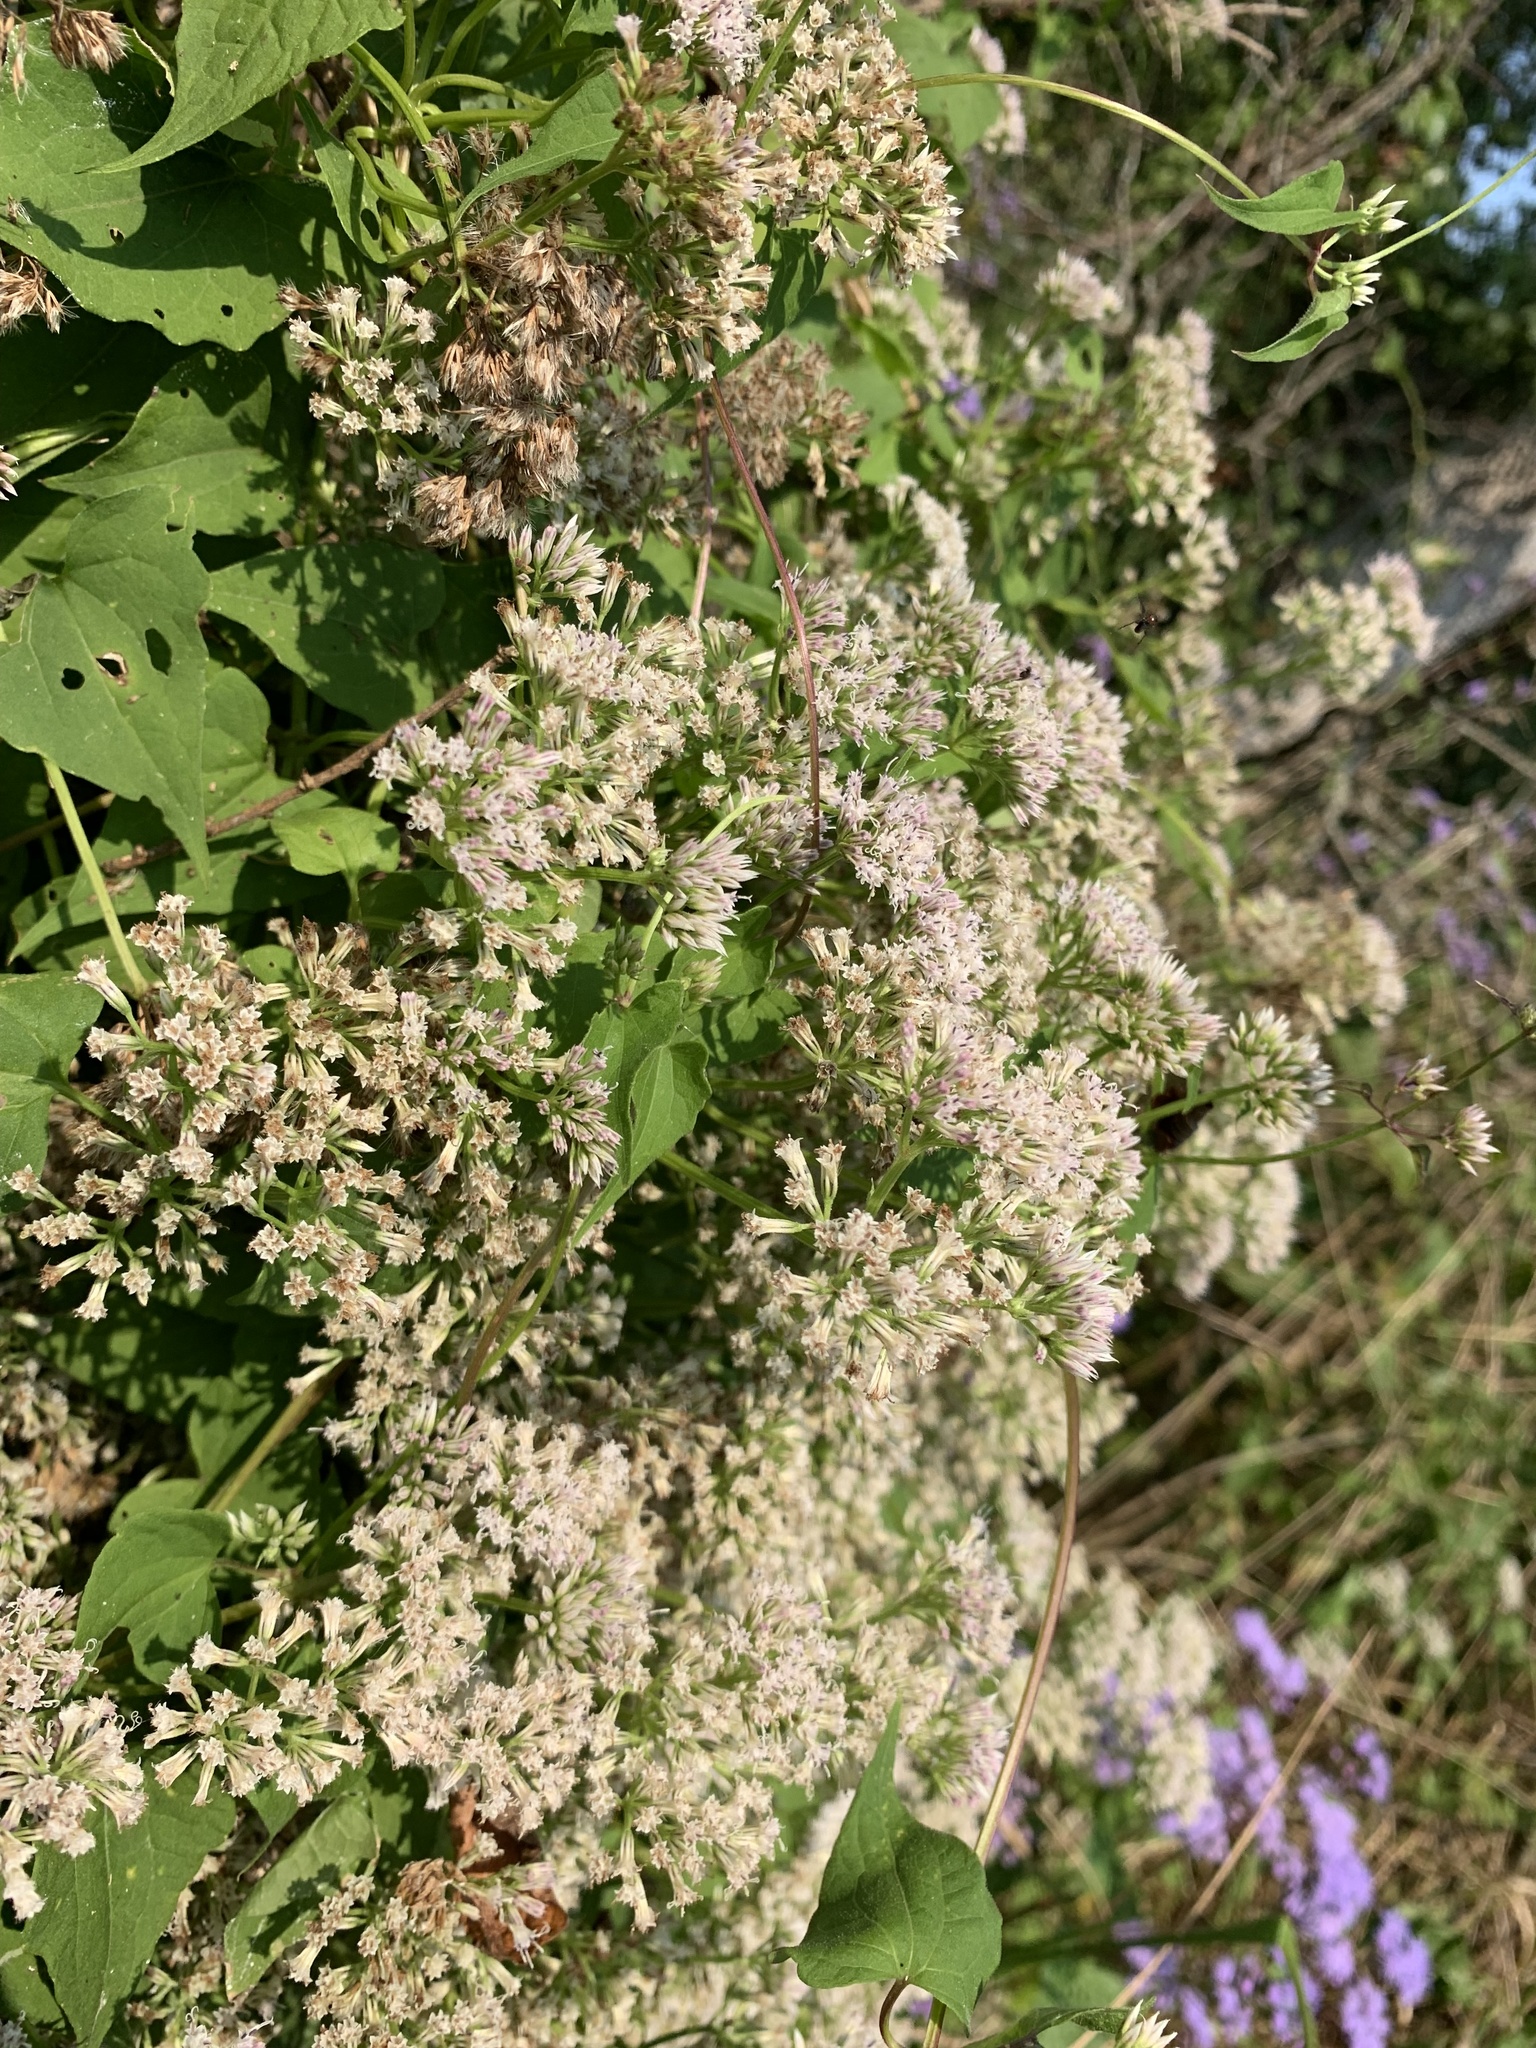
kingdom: Plantae
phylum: Tracheophyta
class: Magnoliopsida
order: Asterales
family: Asteraceae
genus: Mikania
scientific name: Mikania scandens
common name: Climbing hempvine
